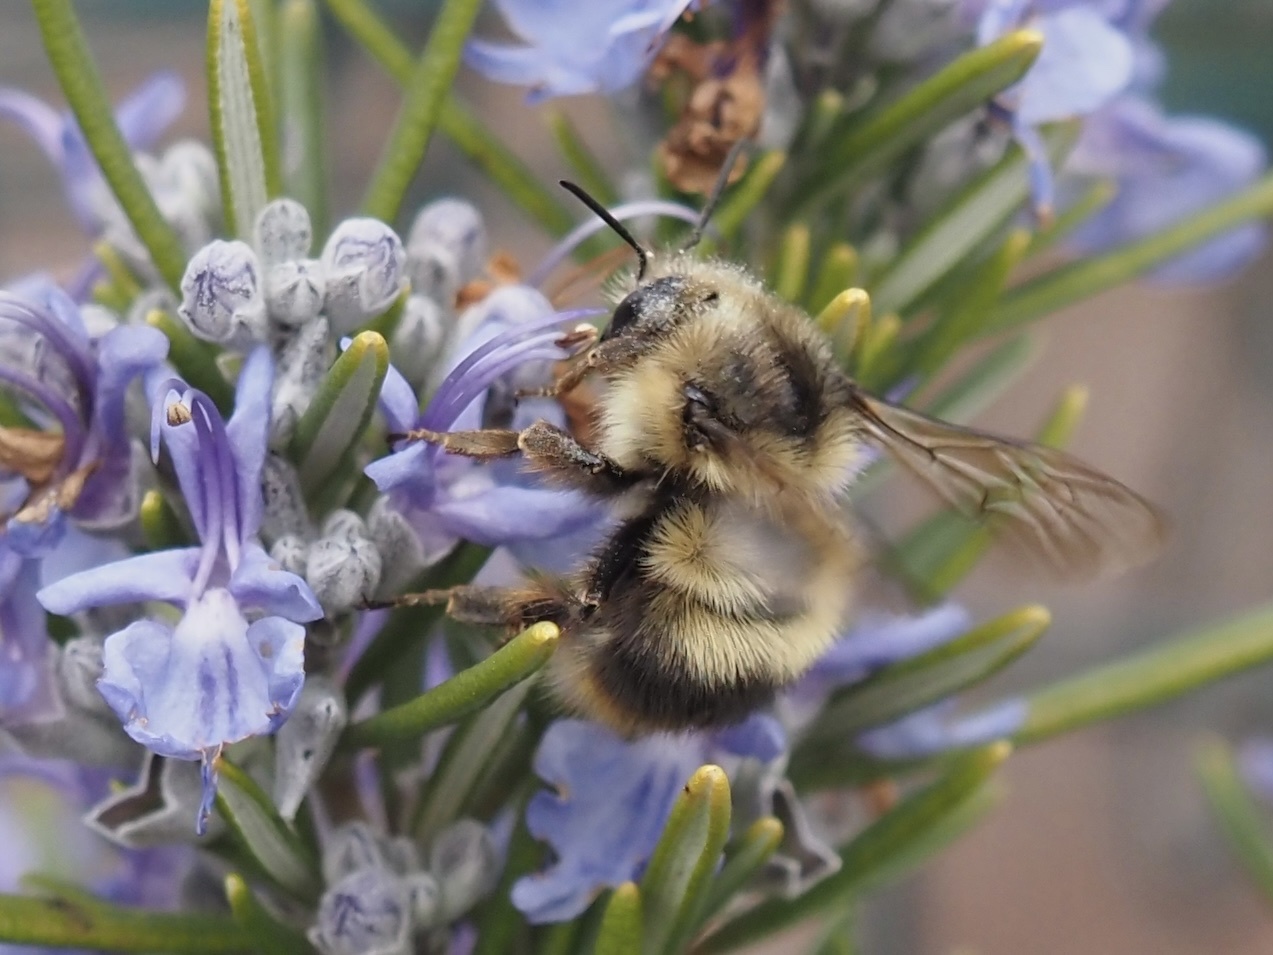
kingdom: Animalia
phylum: Arthropoda
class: Insecta
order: Hymenoptera
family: Apidae
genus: Bombus
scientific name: Bombus mixtus
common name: Fuzzy-horned bumble bee
